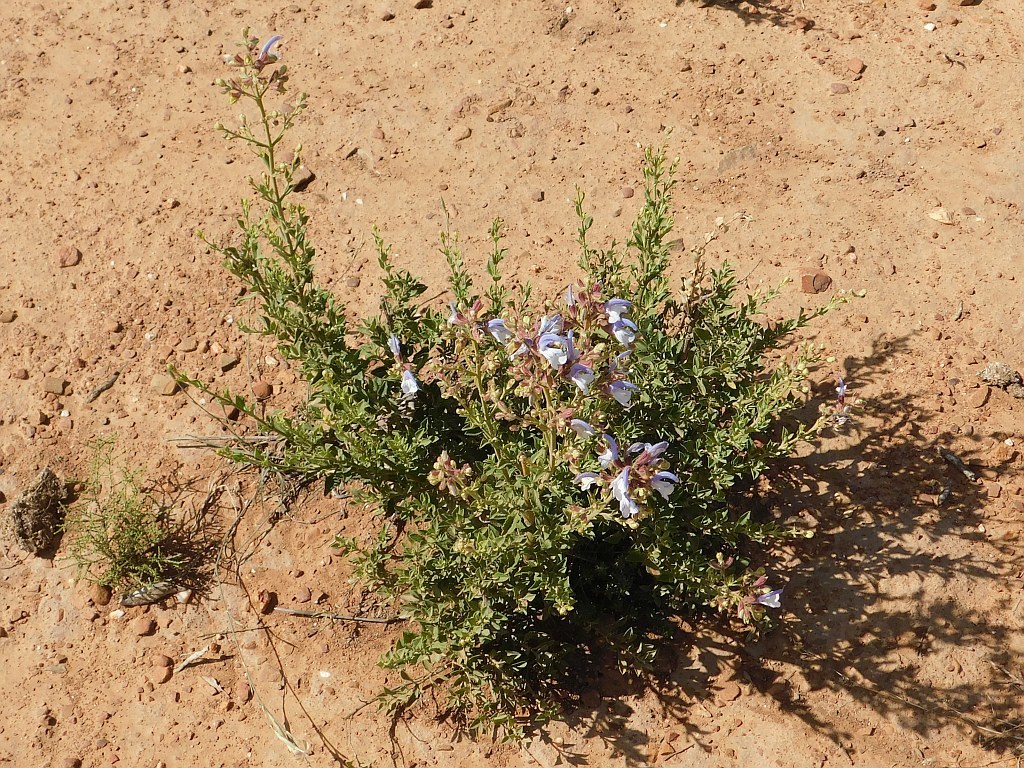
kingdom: Plantae
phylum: Tracheophyta
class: Magnoliopsida
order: Lamiales
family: Lamiaceae
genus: Salvia
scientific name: Salvia chamelaeagnea
